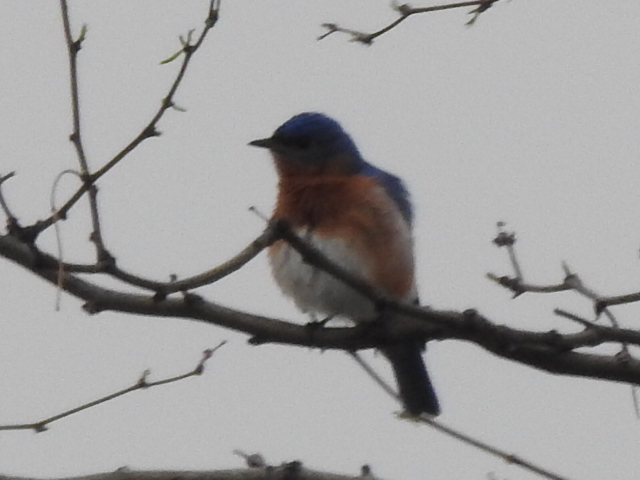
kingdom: Animalia
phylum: Chordata
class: Aves
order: Passeriformes
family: Turdidae
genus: Sialia
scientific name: Sialia sialis
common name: Eastern bluebird
